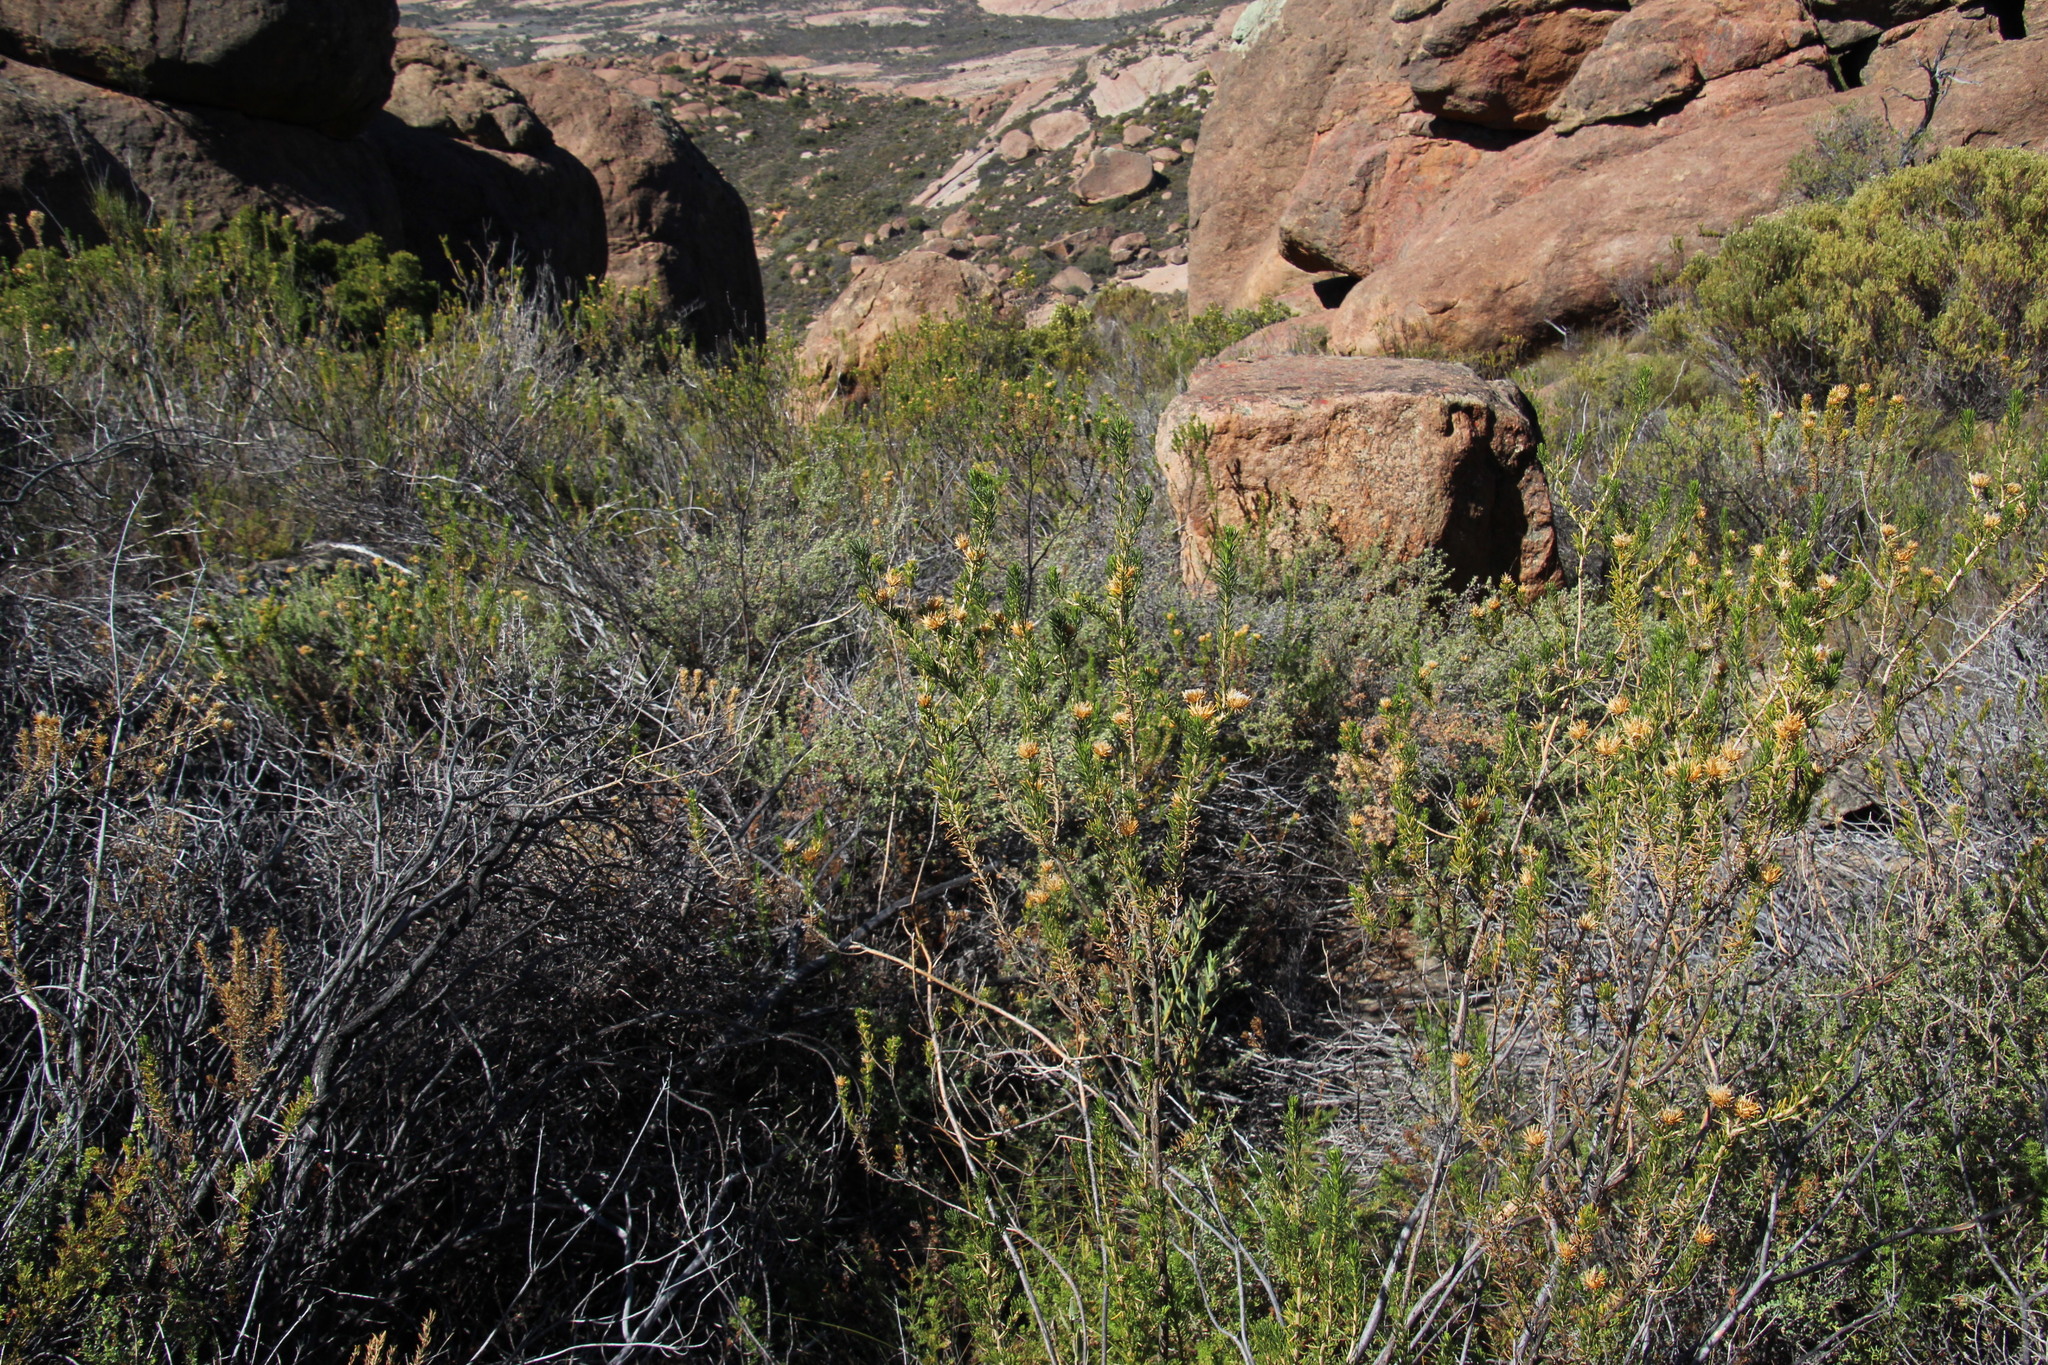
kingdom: Plantae
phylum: Tracheophyta
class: Magnoliopsida
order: Asterales
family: Asteraceae
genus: Pteronia
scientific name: Pteronia camphorata
